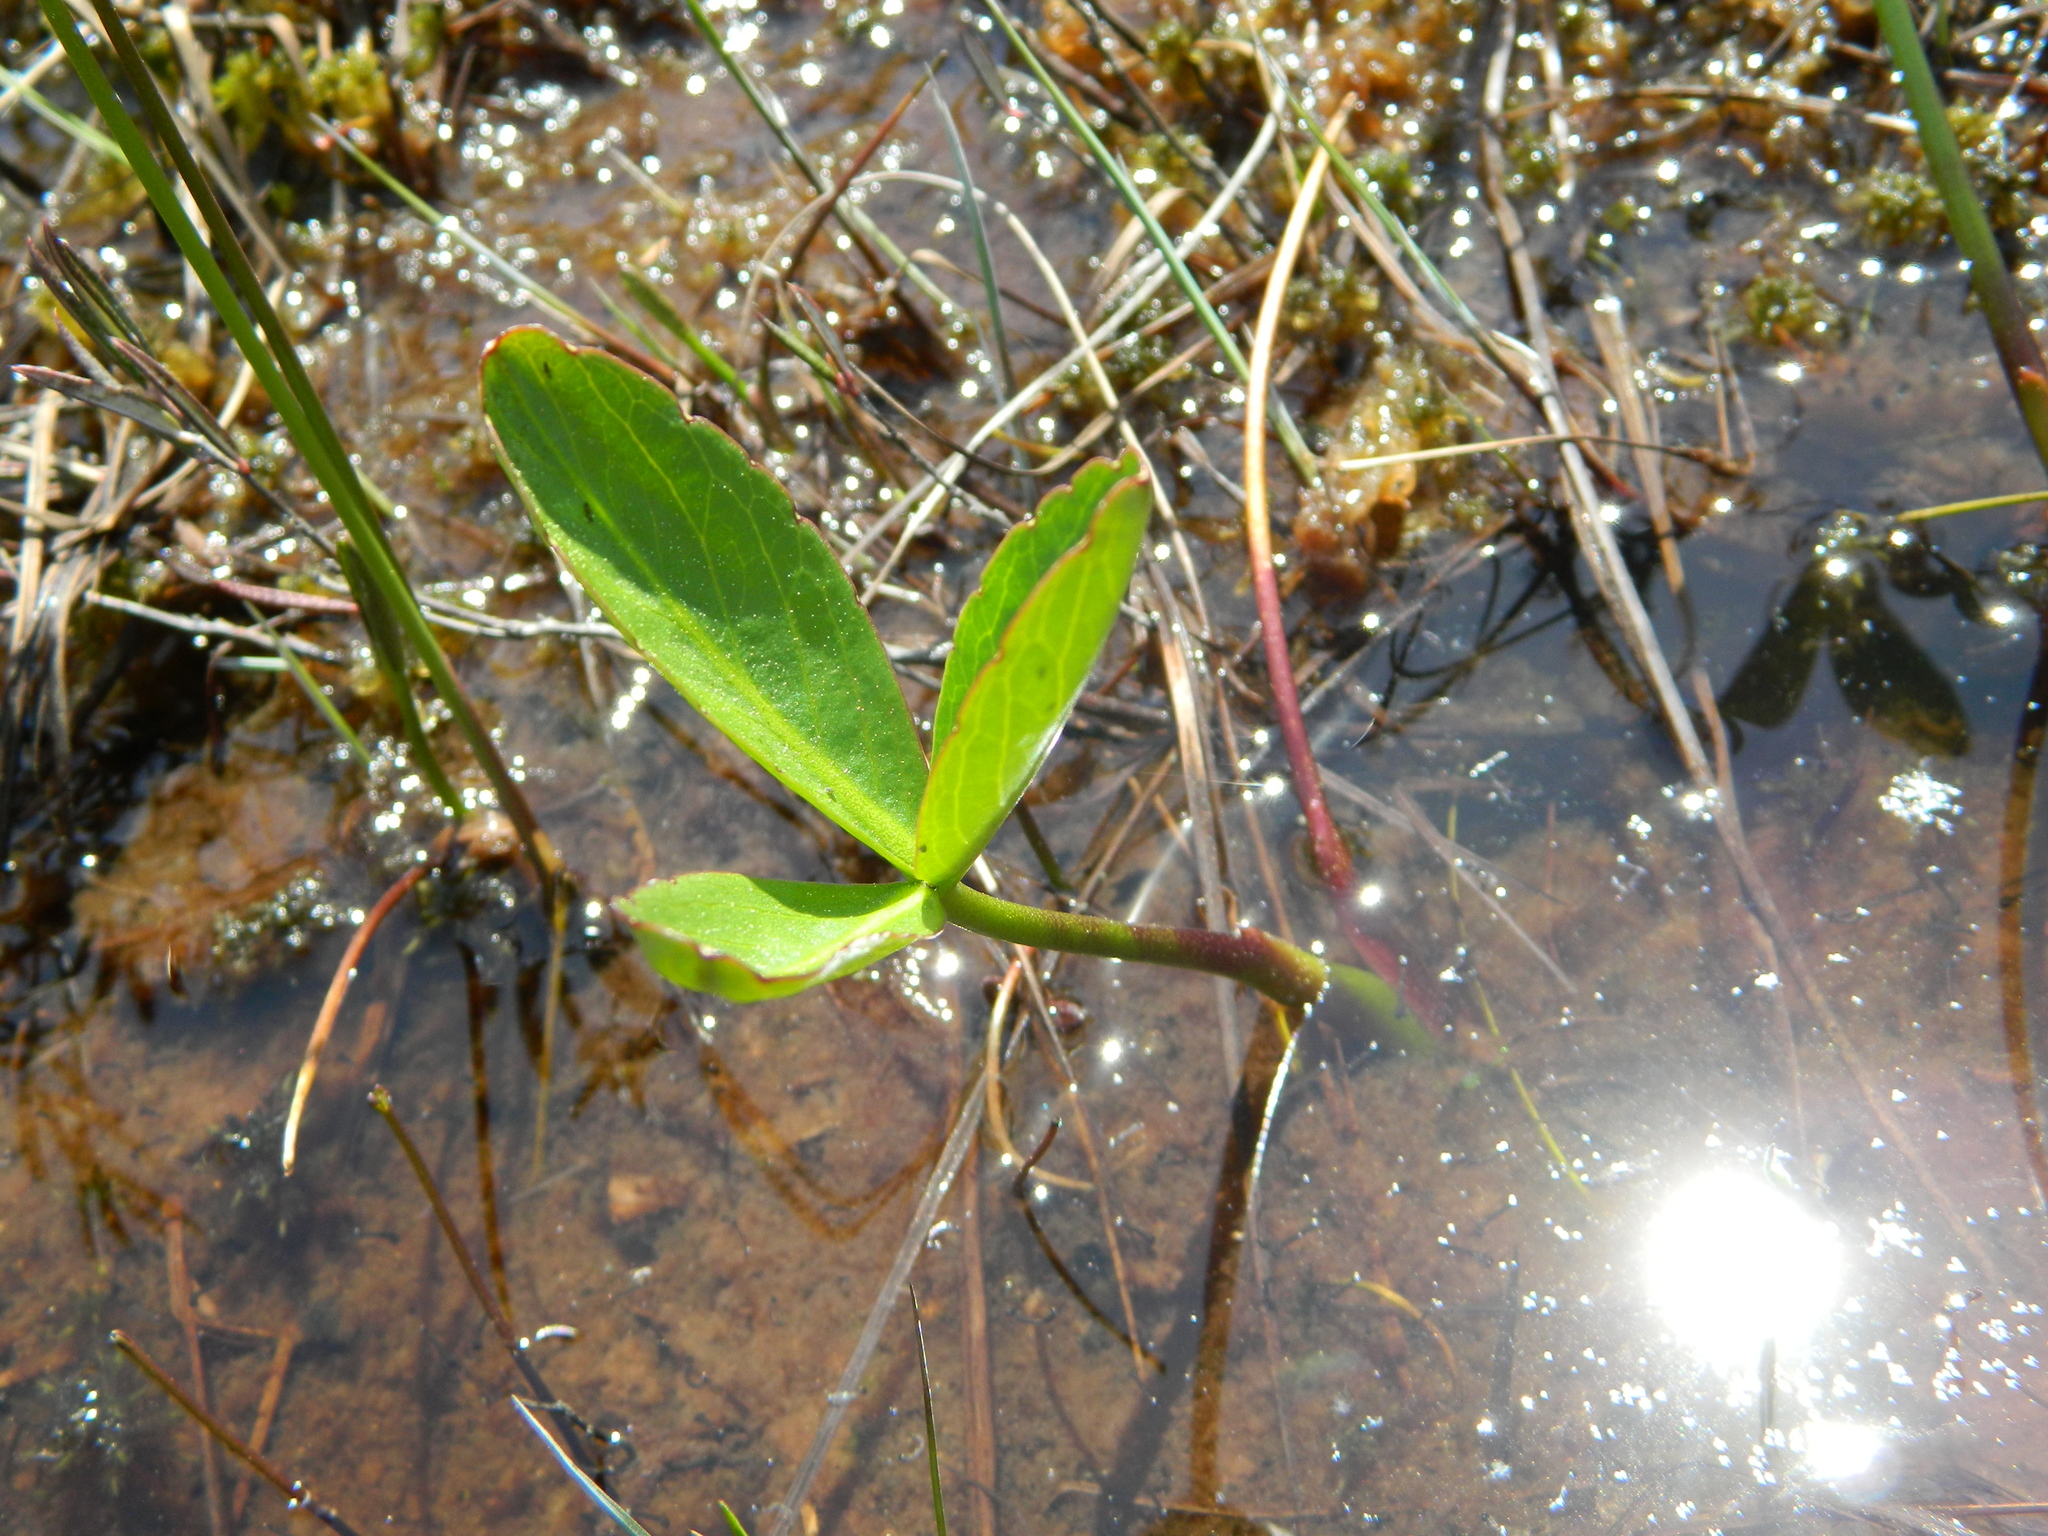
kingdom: Plantae
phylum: Tracheophyta
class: Magnoliopsida
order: Asterales
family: Menyanthaceae
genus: Menyanthes
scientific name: Menyanthes trifoliata
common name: Bogbean
